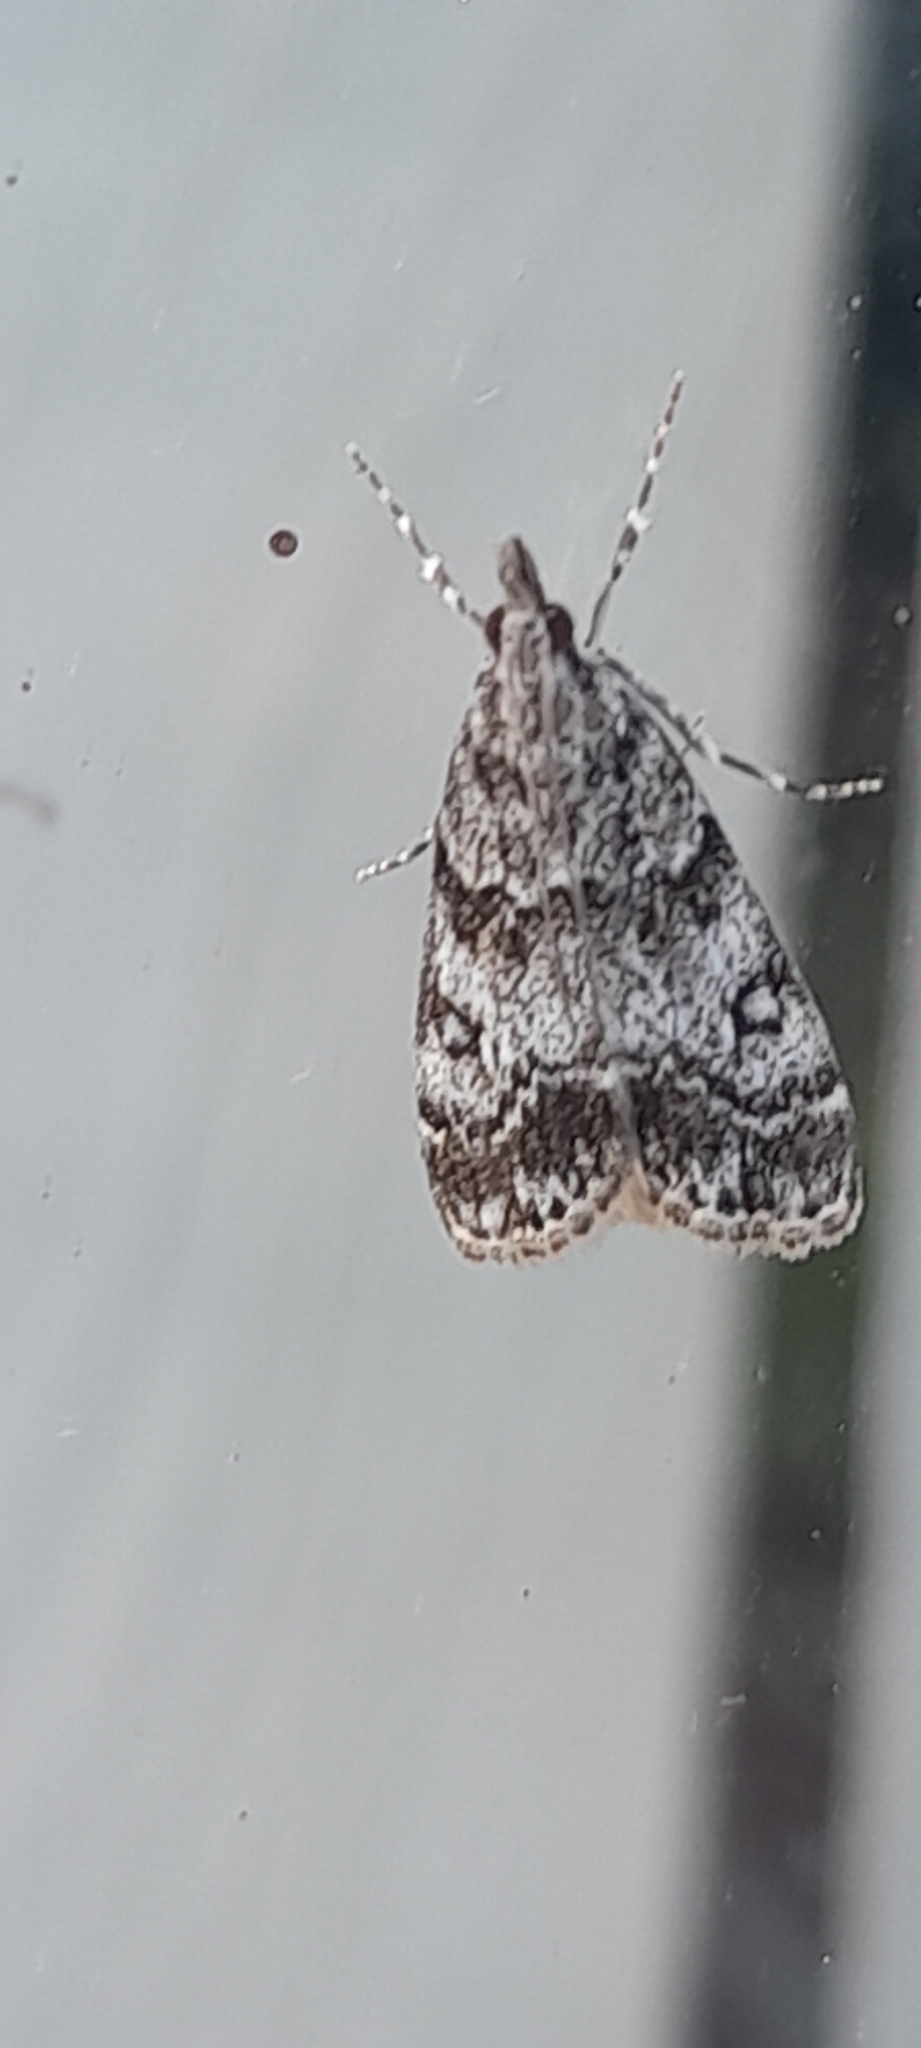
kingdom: Animalia
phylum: Arthropoda
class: Insecta
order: Lepidoptera
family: Crambidae
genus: Eudonia
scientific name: Eudonia lacustrata
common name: Little grey
